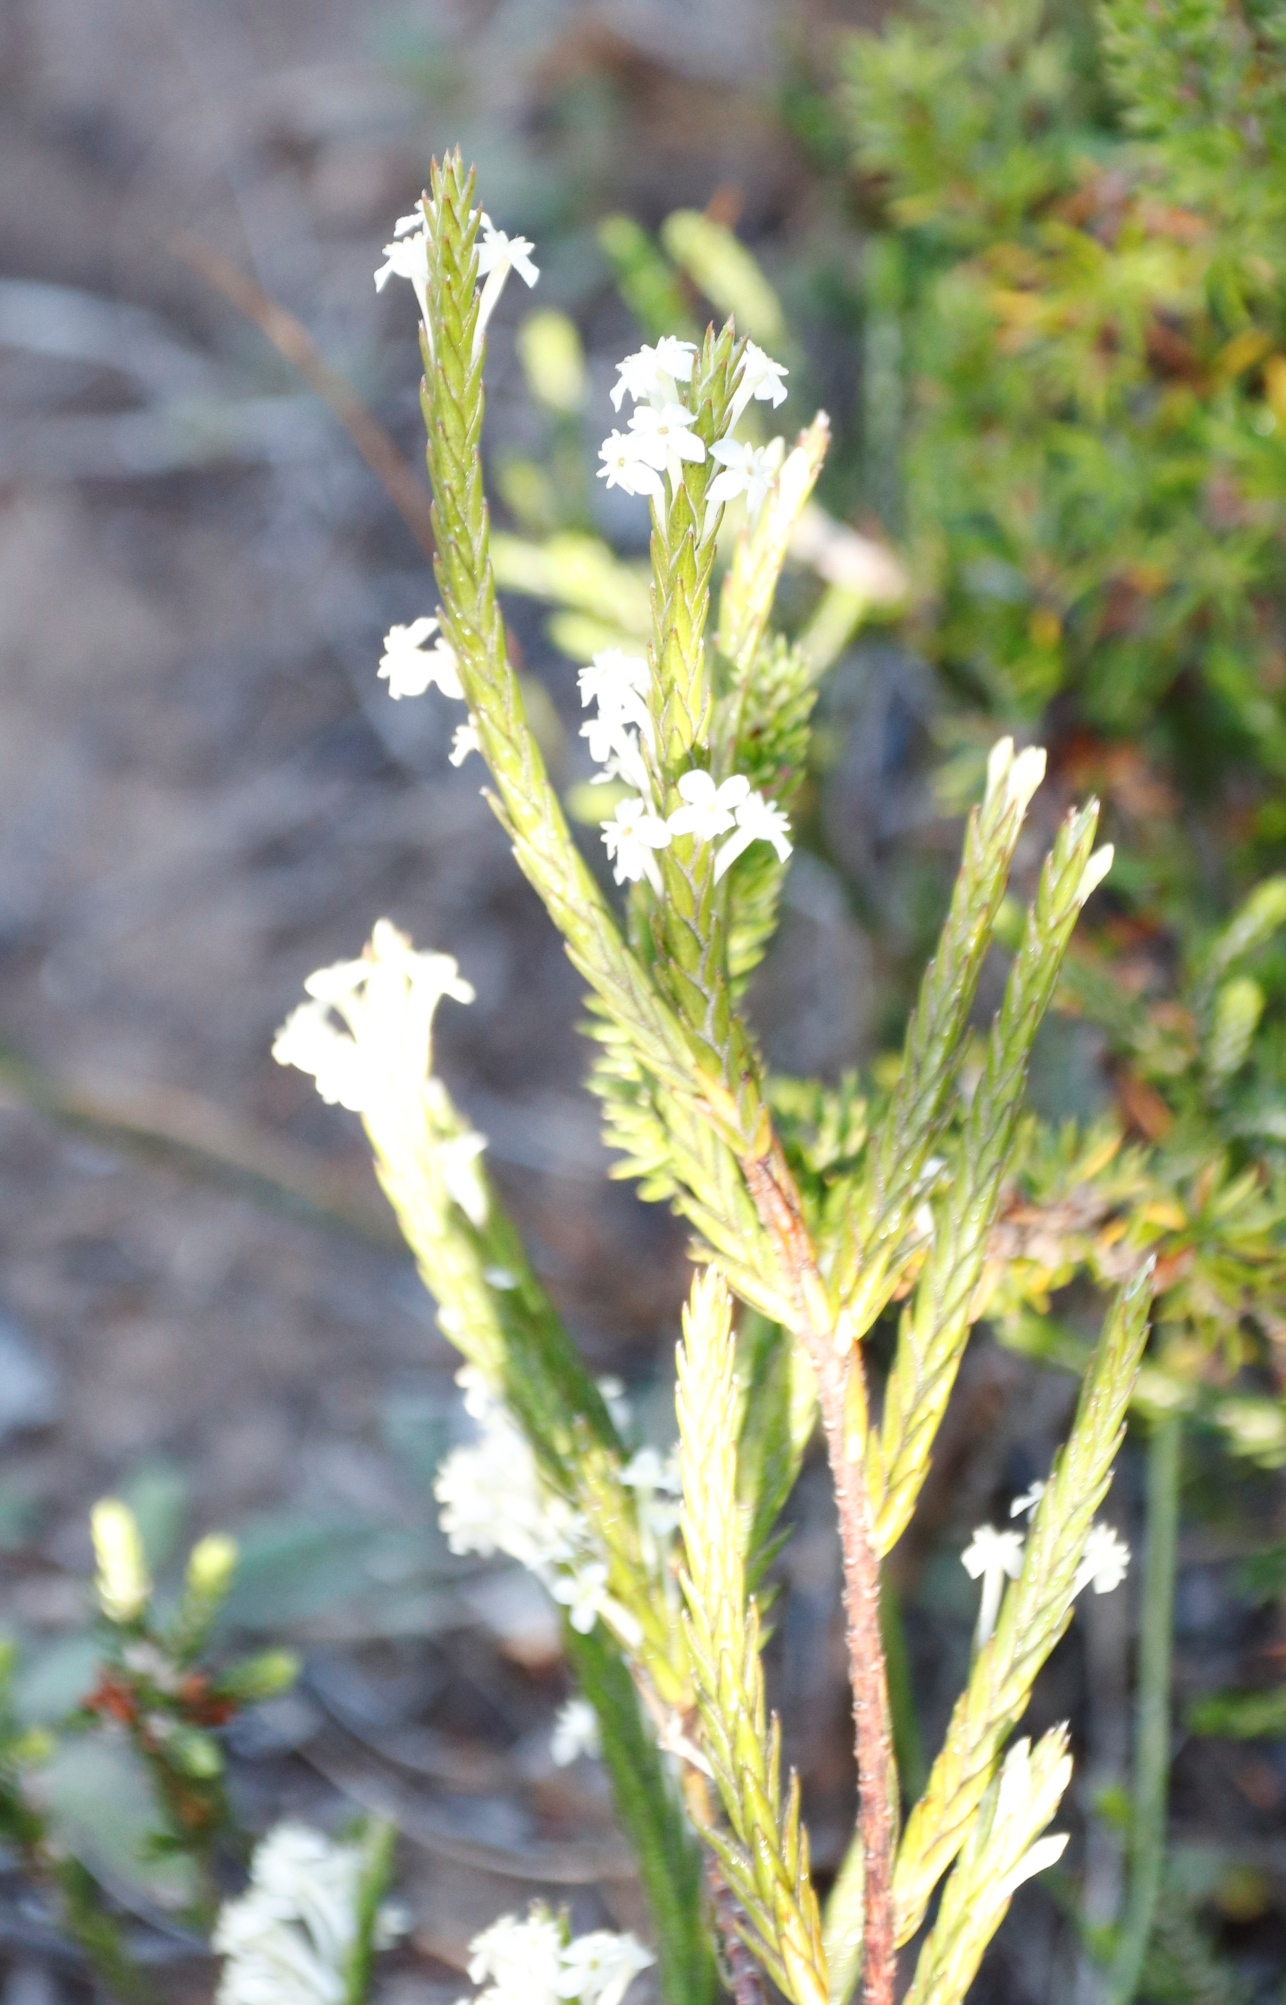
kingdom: Plantae
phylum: Tracheophyta
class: Magnoliopsida
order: Malvales
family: Thymelaeaceae
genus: Struthiola
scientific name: Struthiola ciliata
